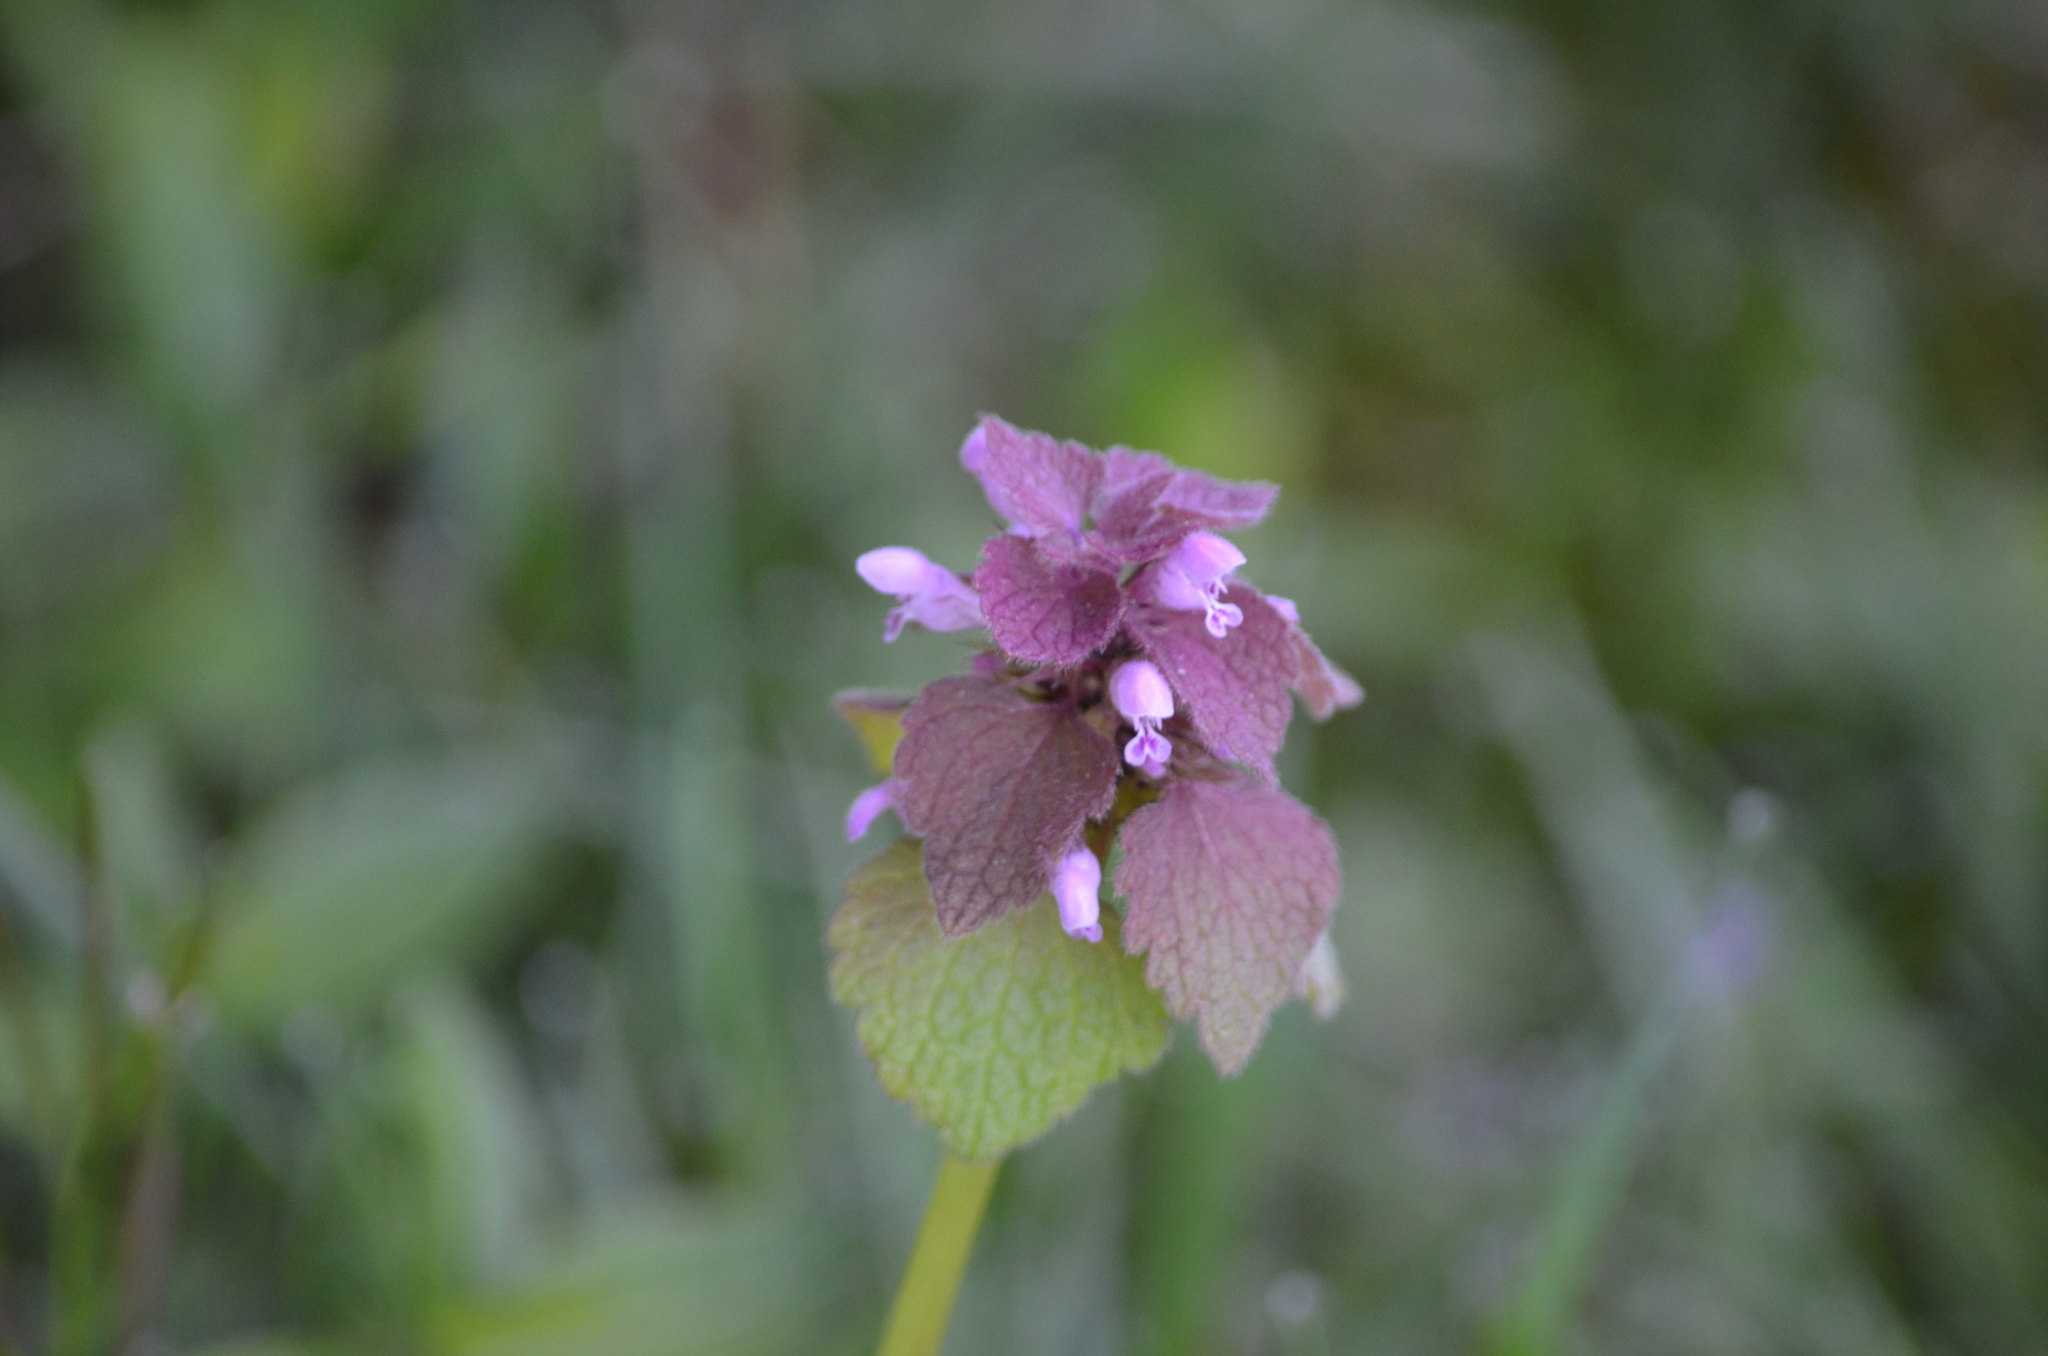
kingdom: Plantae
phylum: Tracheophyta
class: Magnoliopsida
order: Lamiales
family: Lamiaceae
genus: Lamium
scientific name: Lamium purpureum
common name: Red dead-nettle
